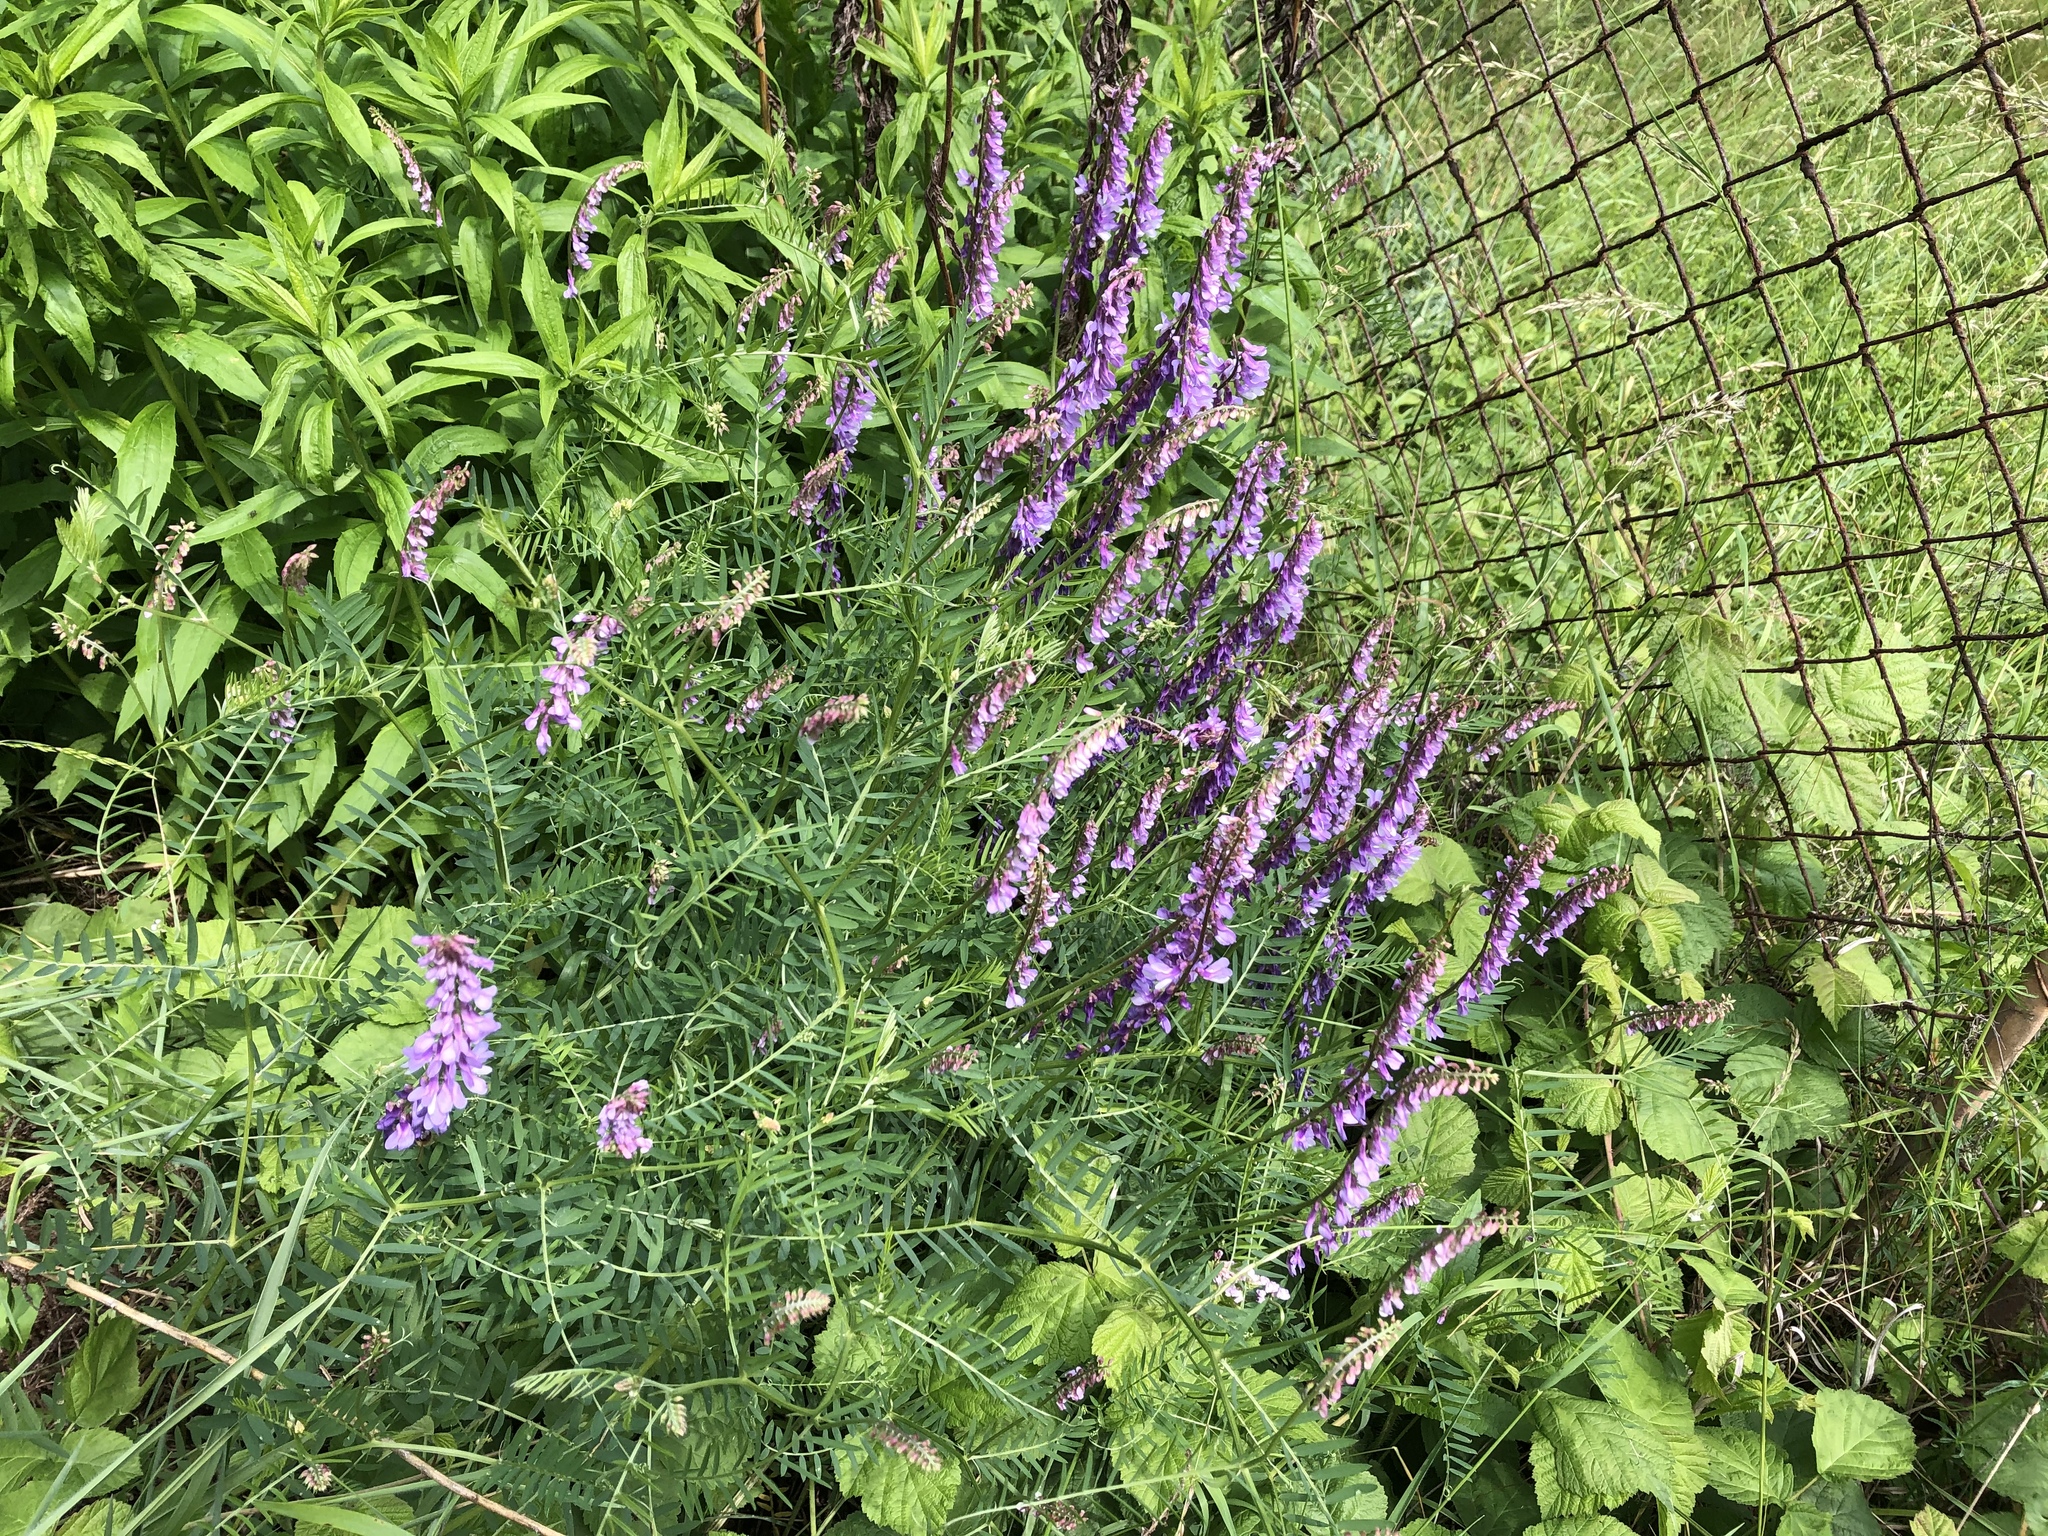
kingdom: Plantae
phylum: Tracheophyta
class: Magnoliopsida
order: Fabales
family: Fabaceae
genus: Vicia
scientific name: Vicia tenuifolia
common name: Fine-leaved vetch
